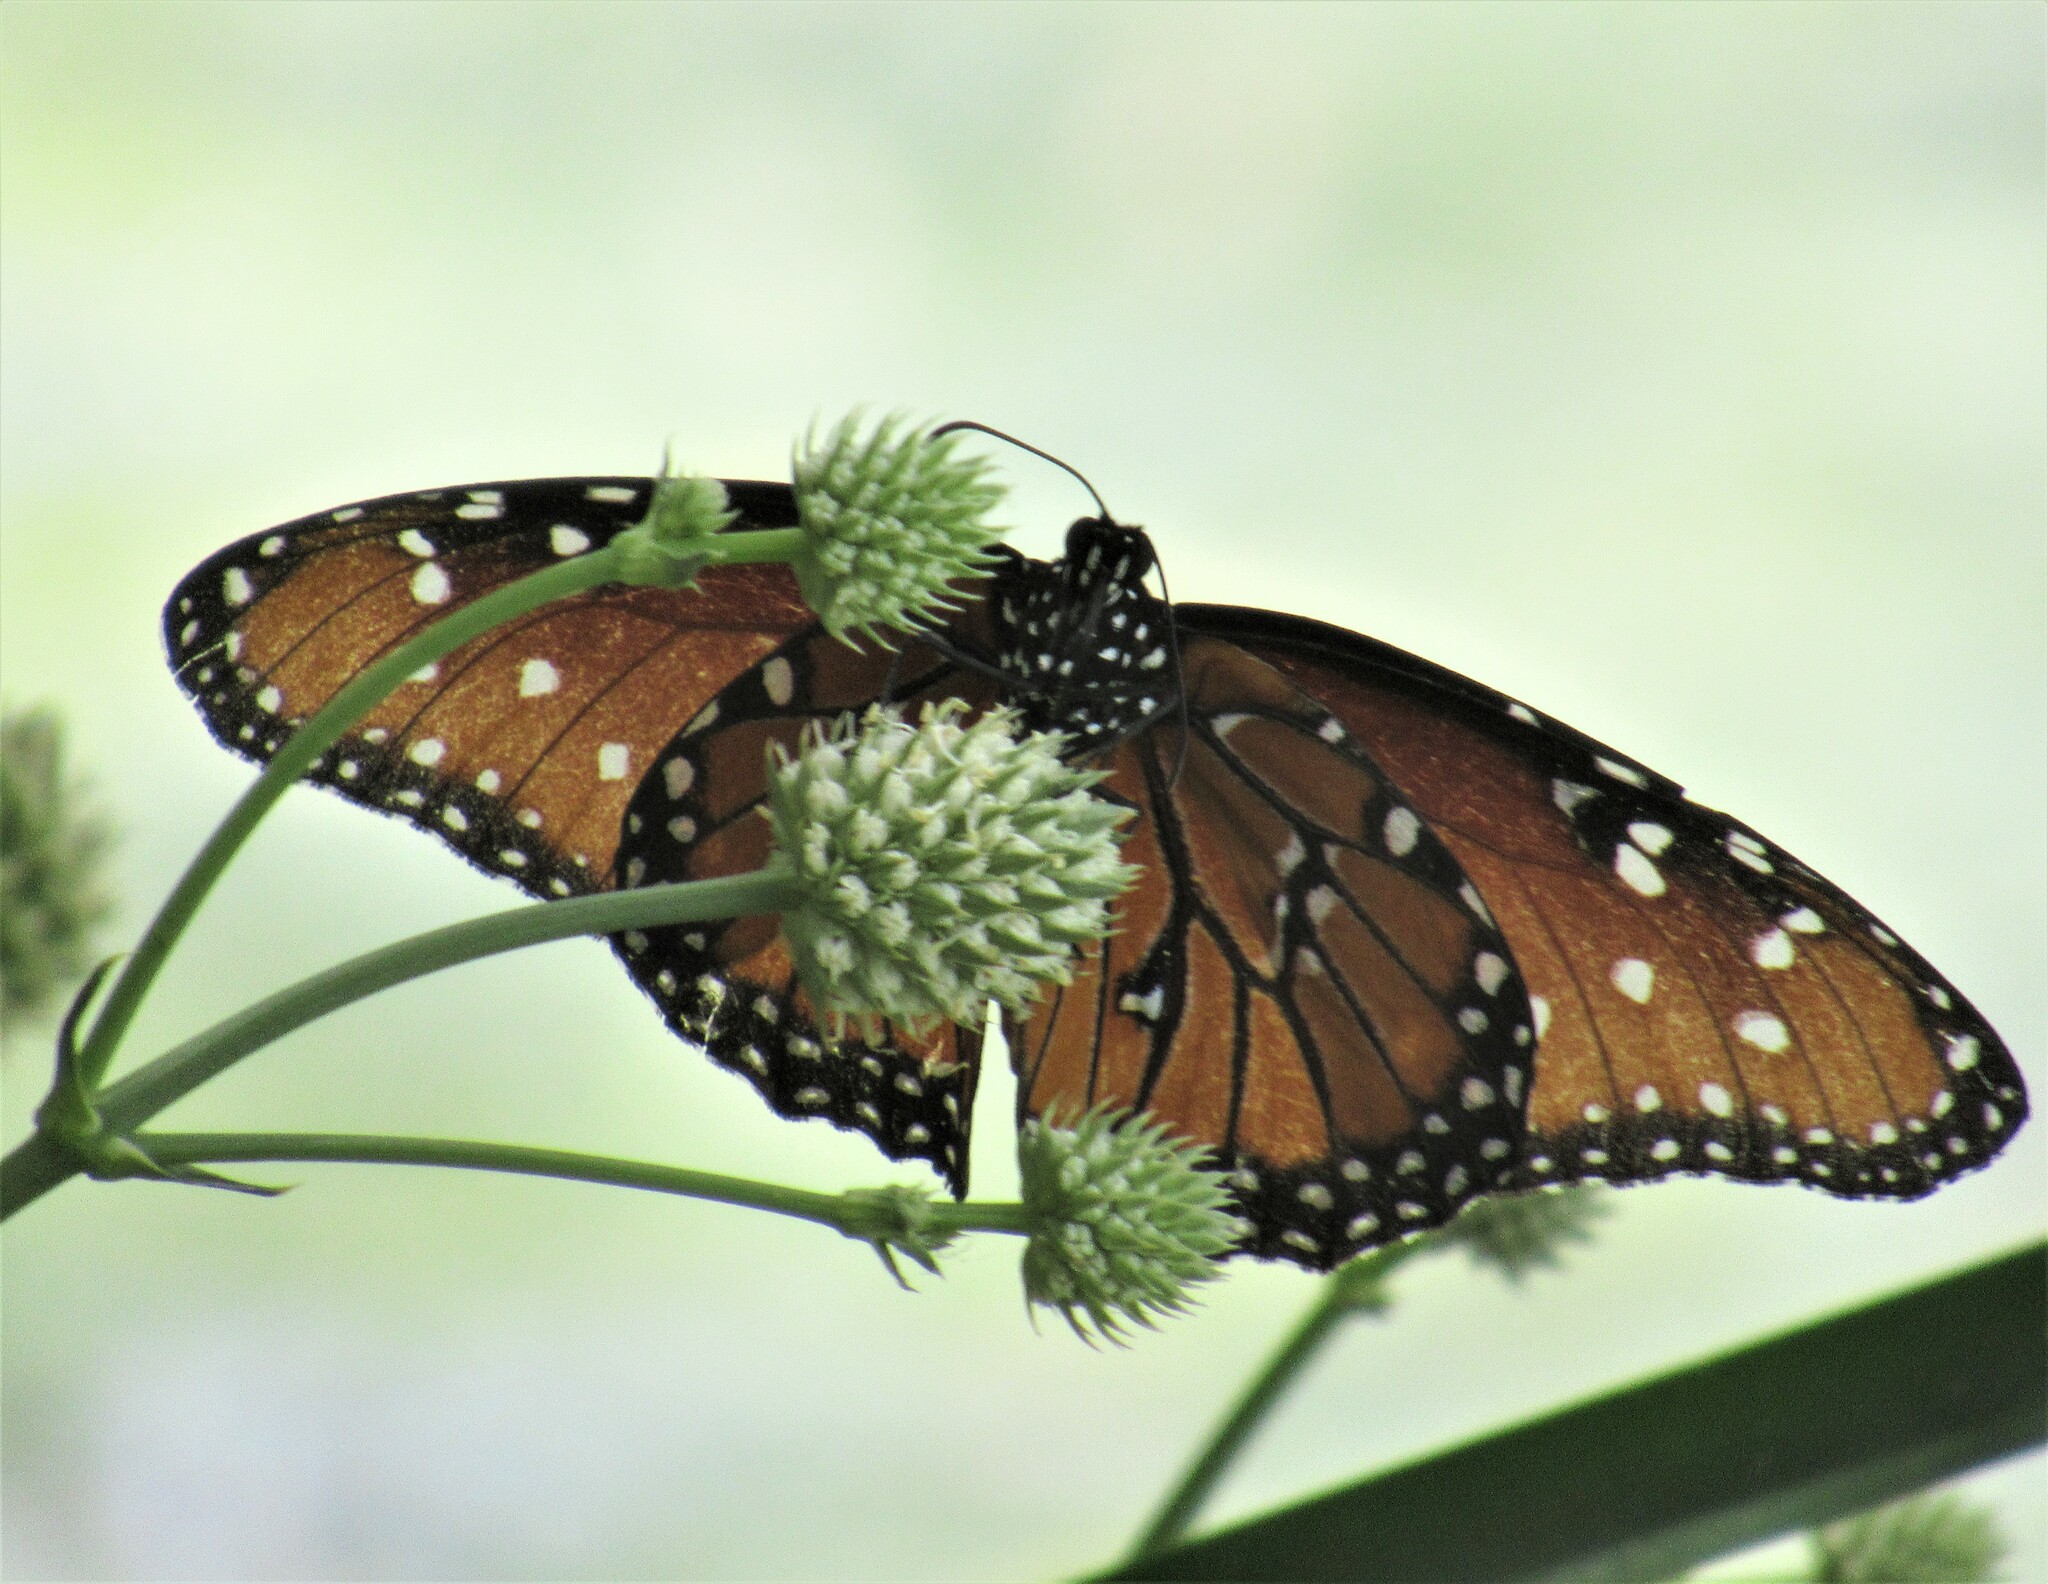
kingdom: Animalia
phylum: Arthropoda
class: Insecta
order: Lepidoptera
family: Nymphalidae
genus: Danaus
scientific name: Danaus gilippus
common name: Queen
